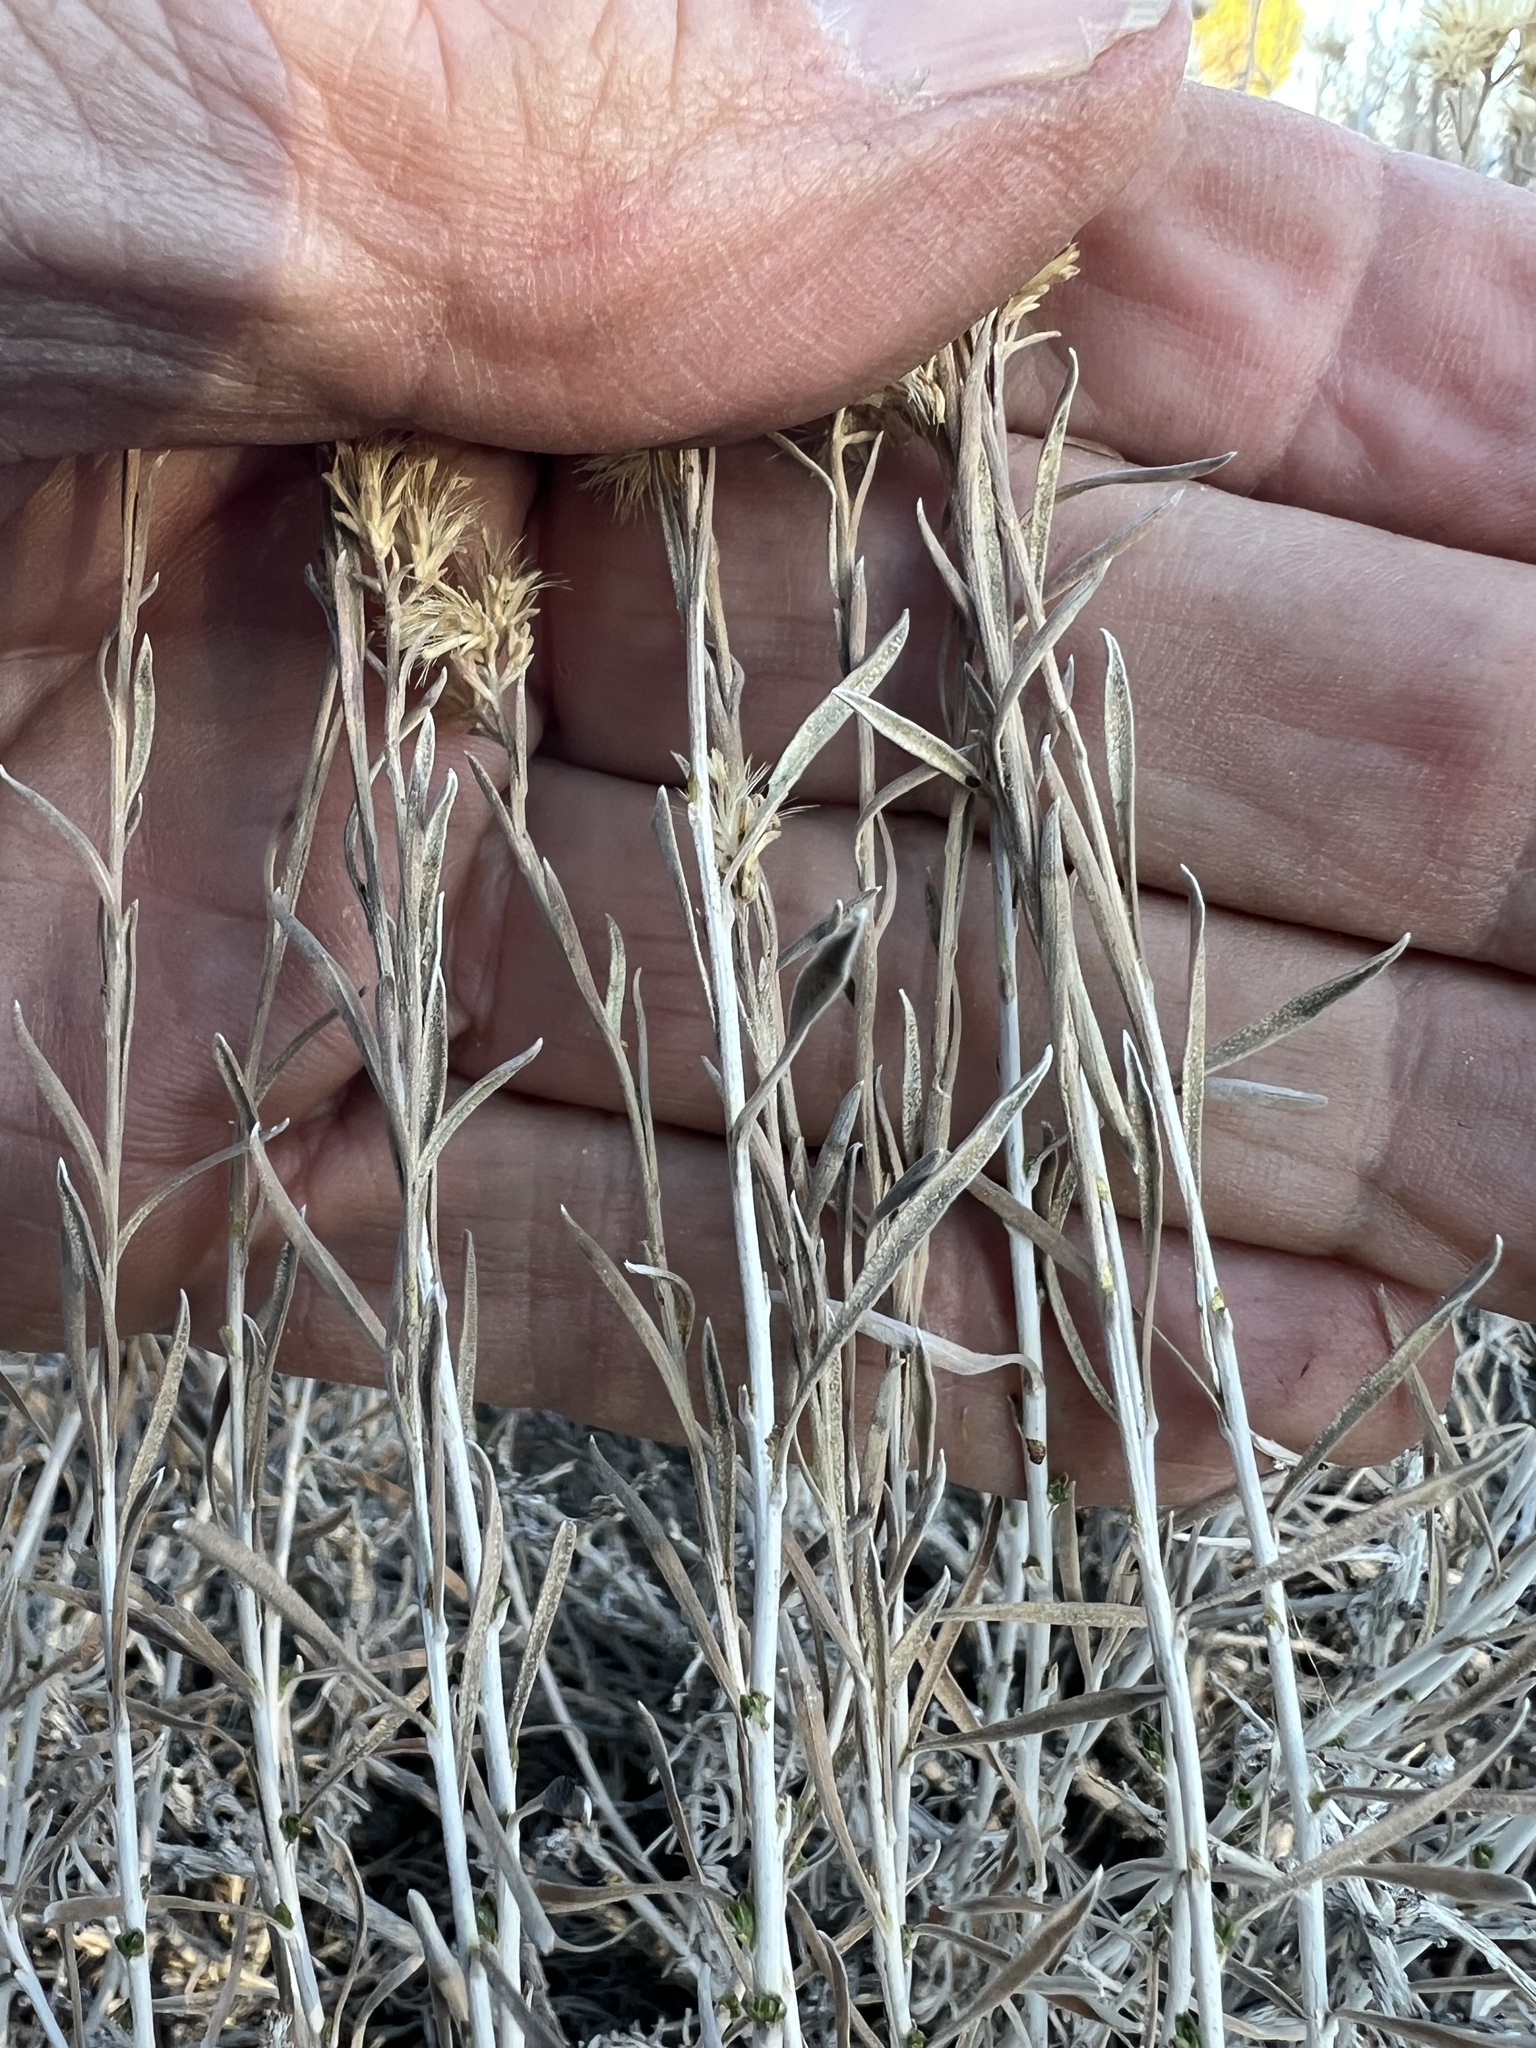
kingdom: Plantae
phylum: Tracheophyta
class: Magnoliopsida
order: Asterales
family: Asteraceae
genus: Chrysothamnus
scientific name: Chrysothamnus viscidiflorus
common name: Yellow rabbitbrush
